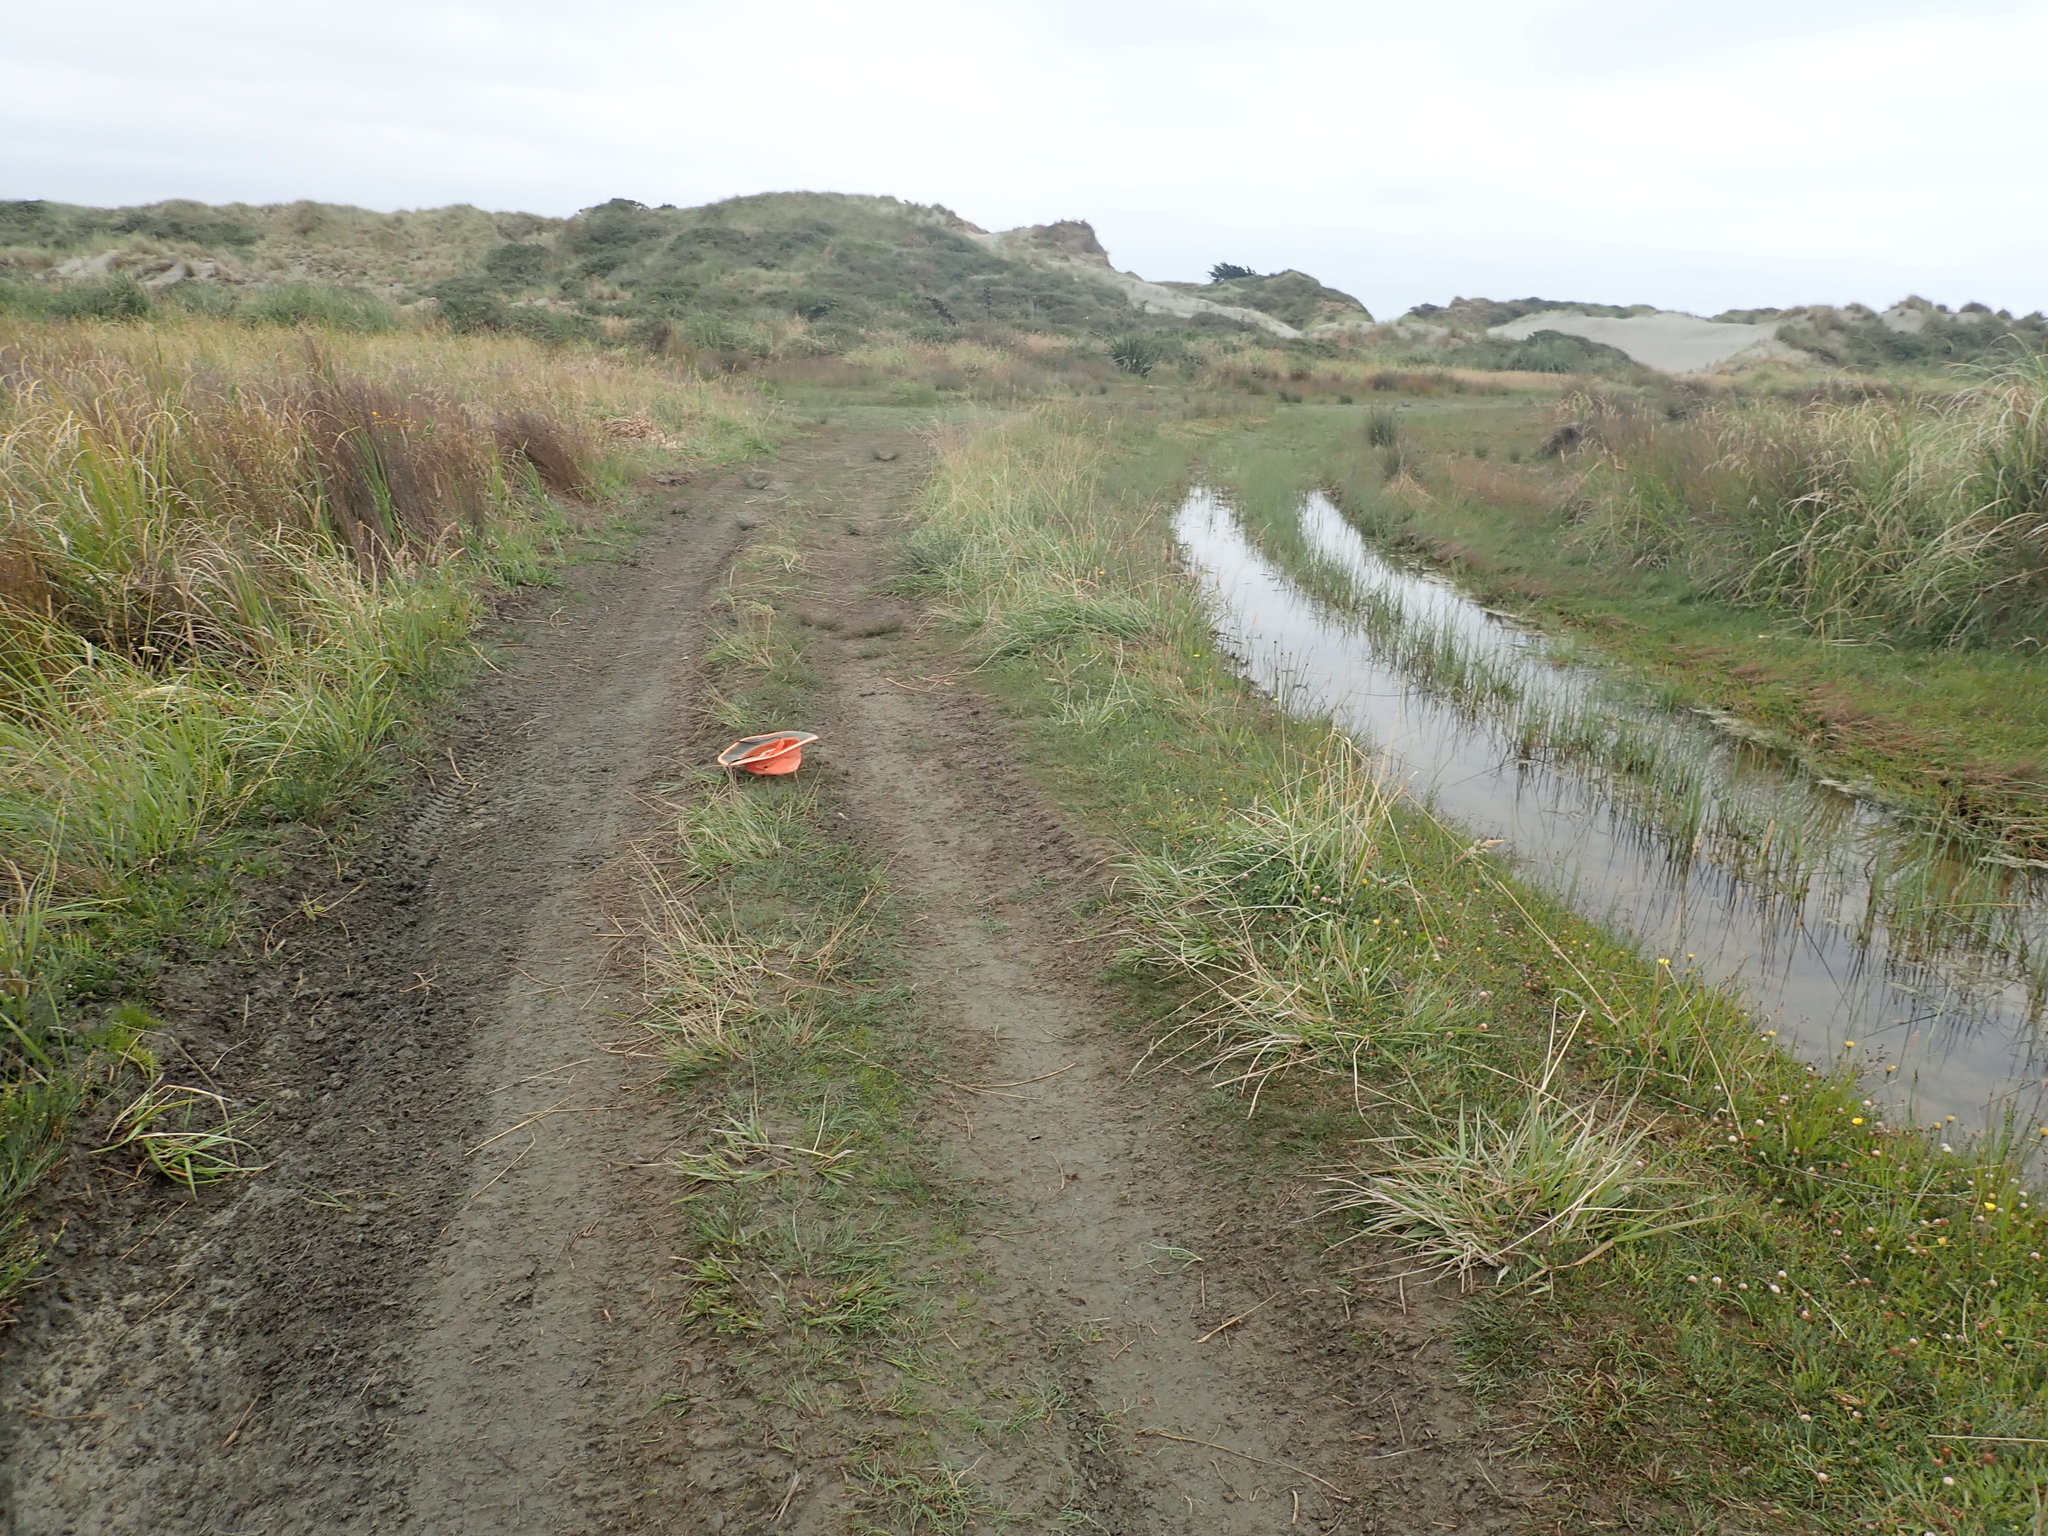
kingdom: Plantae
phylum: Tracheophyta
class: Liliopsida
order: Poales
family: Juncaceae
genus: Juncus
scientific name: Juncus bufonius
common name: Toad rush
